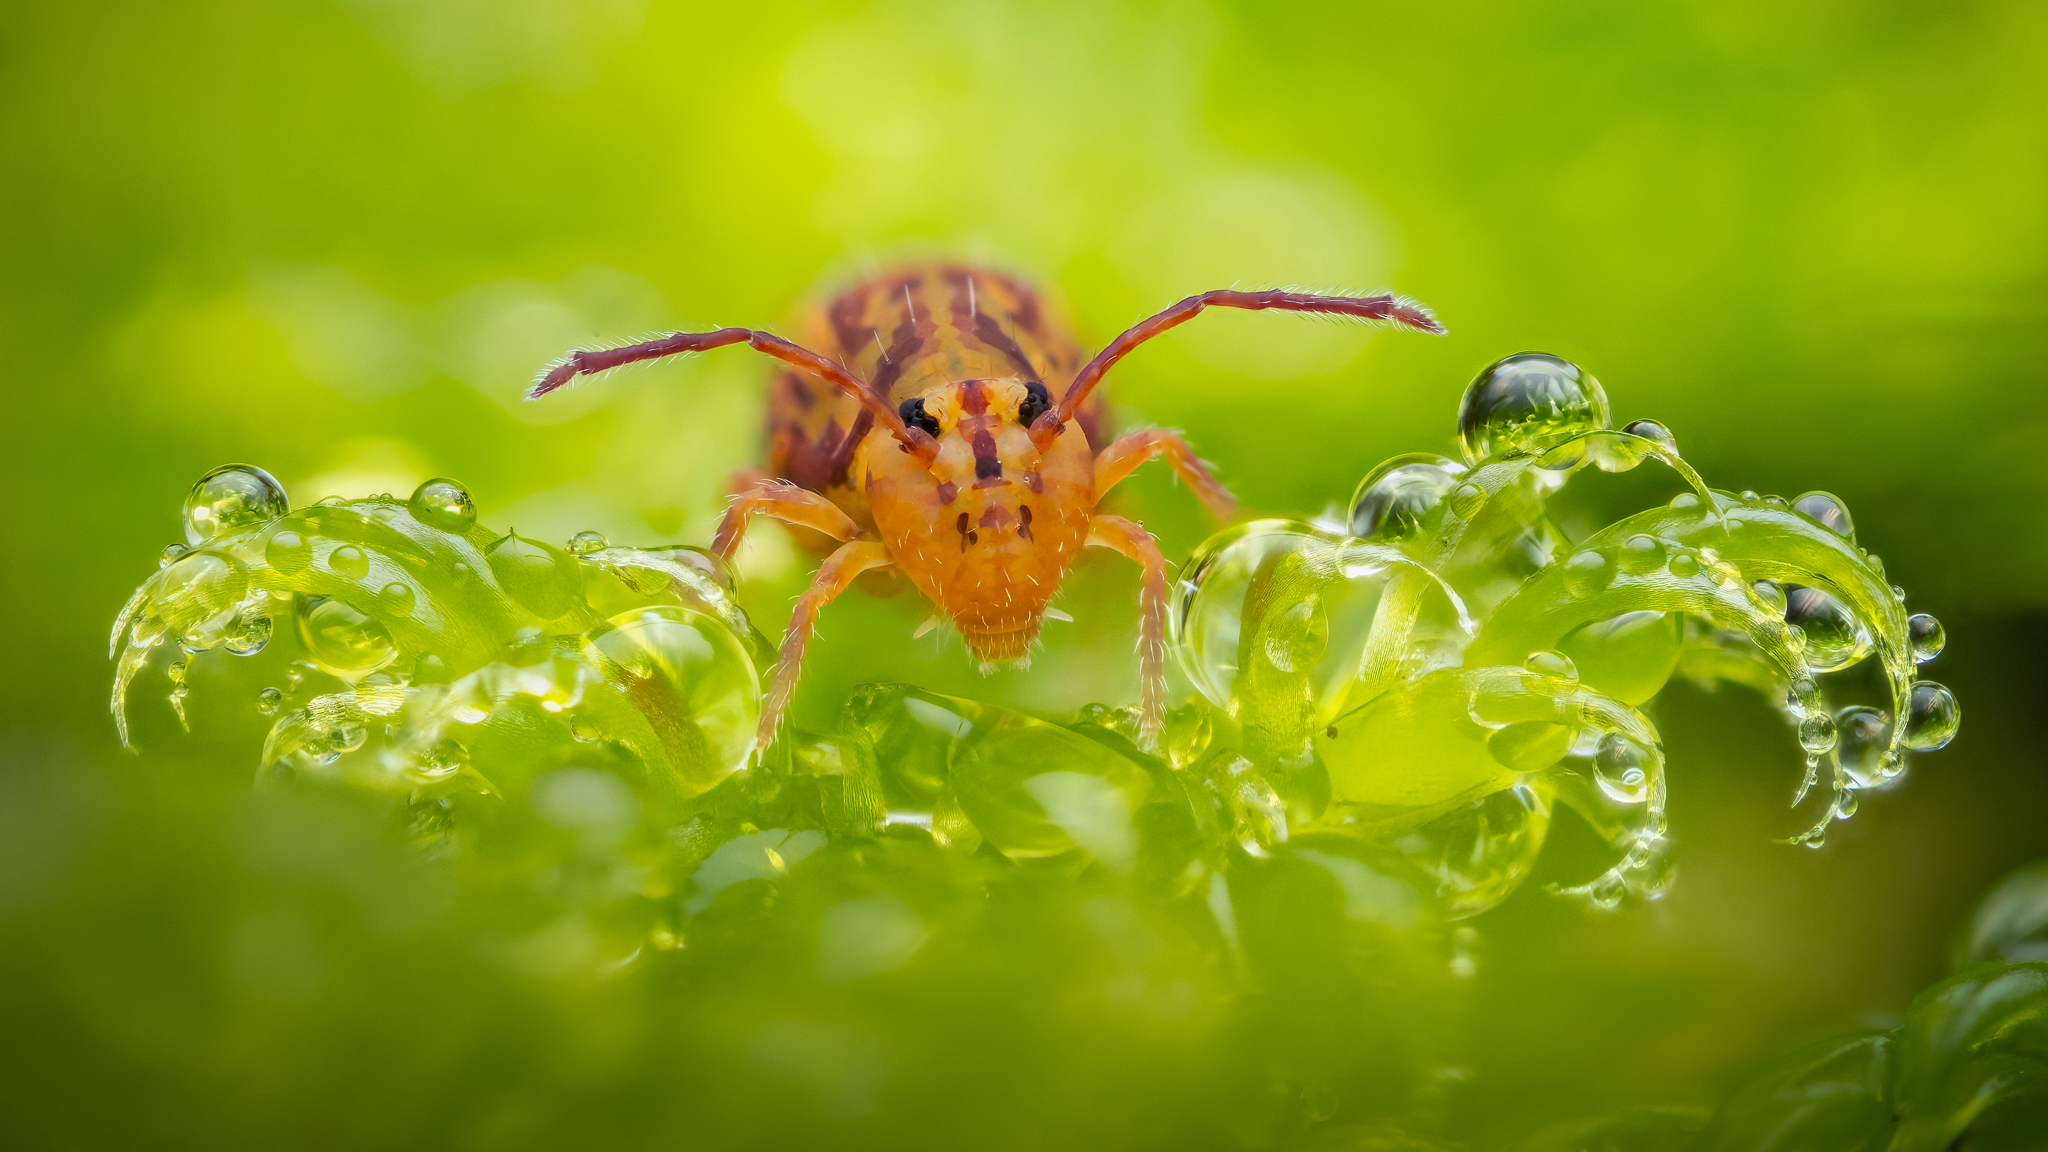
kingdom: Animalia
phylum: Arthropoda
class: Collembola
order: Symphypleona
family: Dicyrtomidae
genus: Dicyrtomina
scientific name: Dicyrtomina ornata
